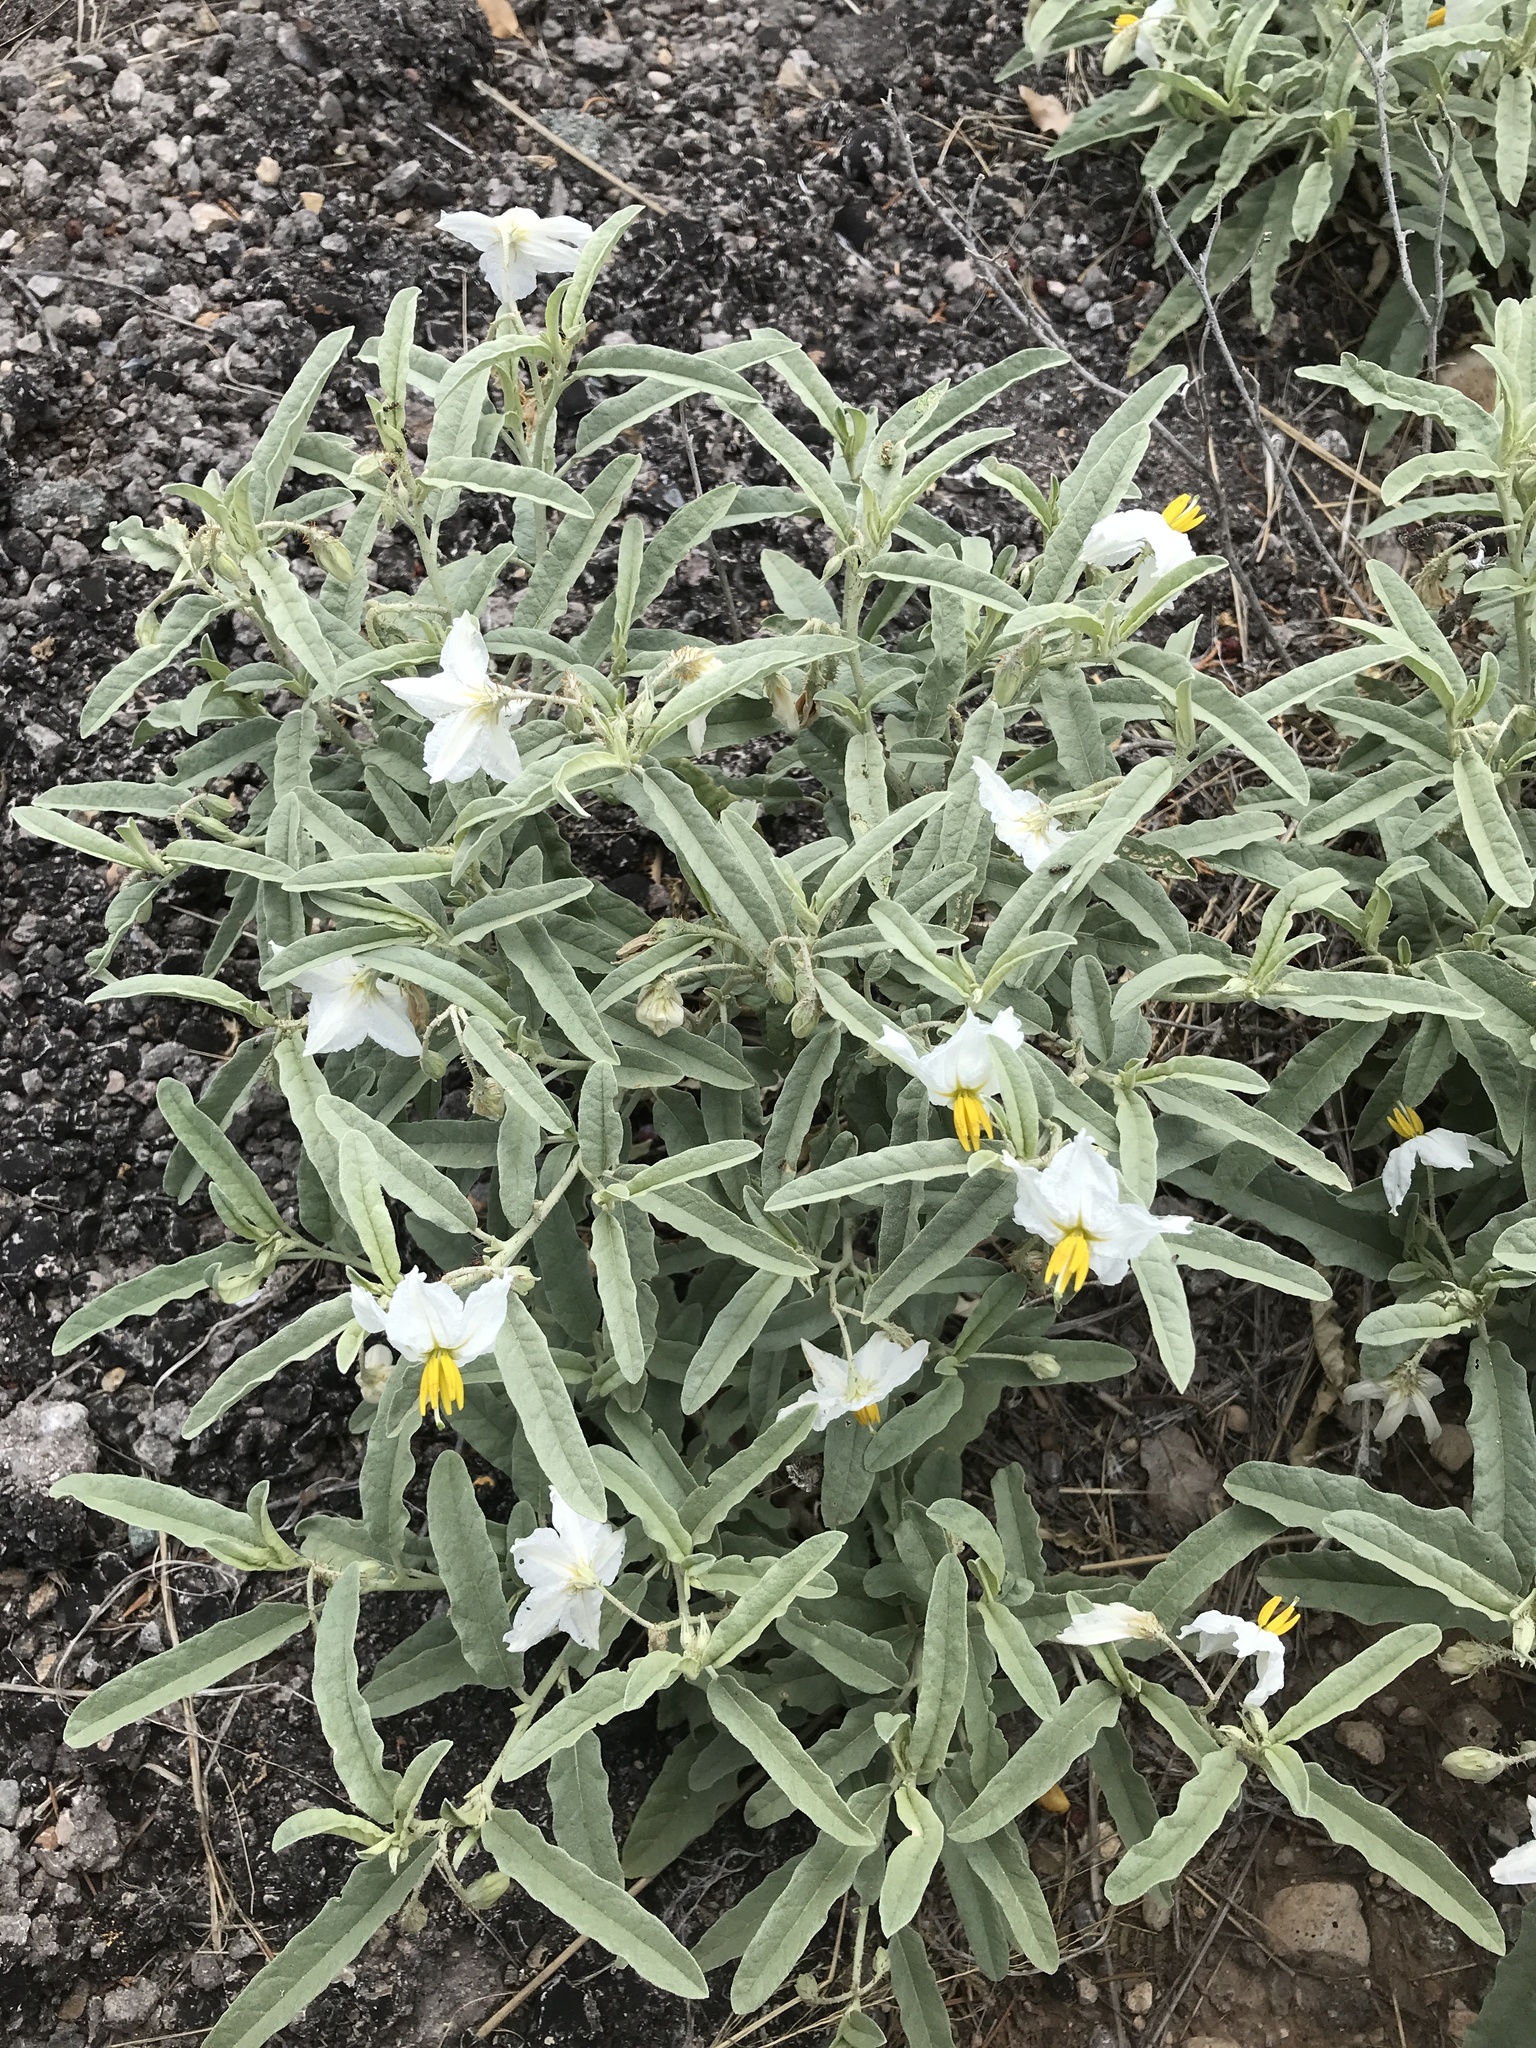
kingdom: Plantae
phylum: Tracheophyta
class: Magnoliopsida
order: Solanales
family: Solanaceae
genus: Solanum
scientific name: Solanum elaeagnifolium
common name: Silverleaf nightshade
